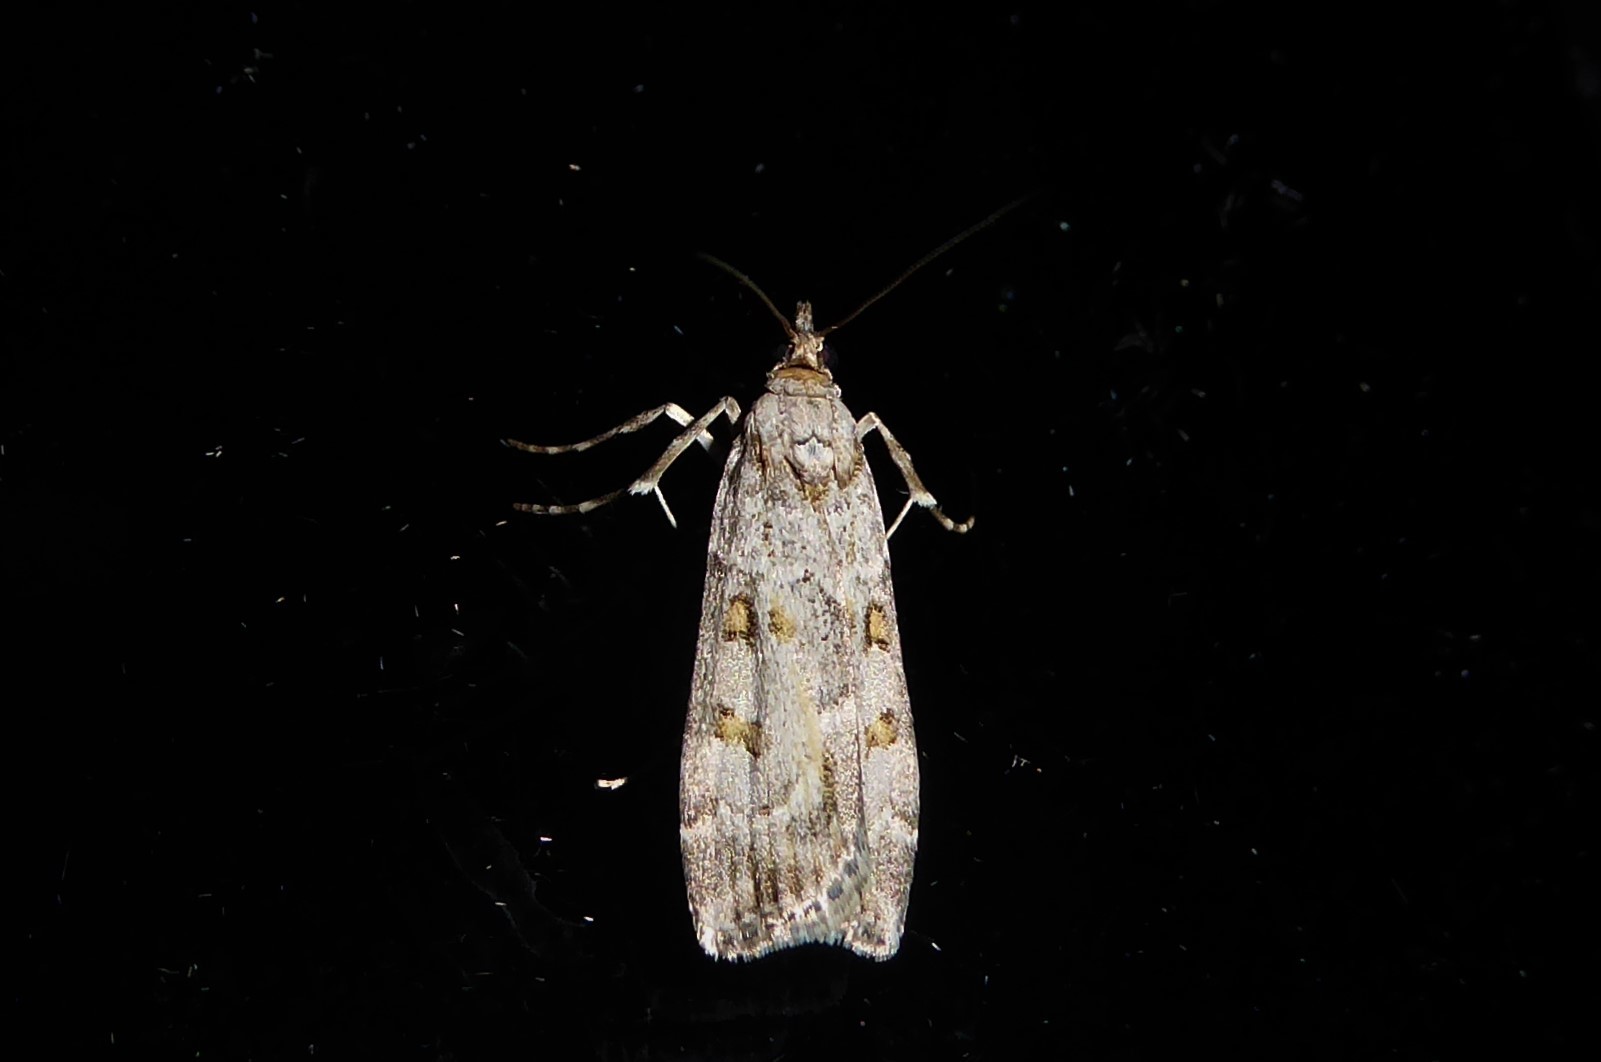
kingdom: Animalia
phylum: Arthropoda
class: Insecta
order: Lepidoptera
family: Crambidae
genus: Eudonia
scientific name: Eudonia diphtheralis
